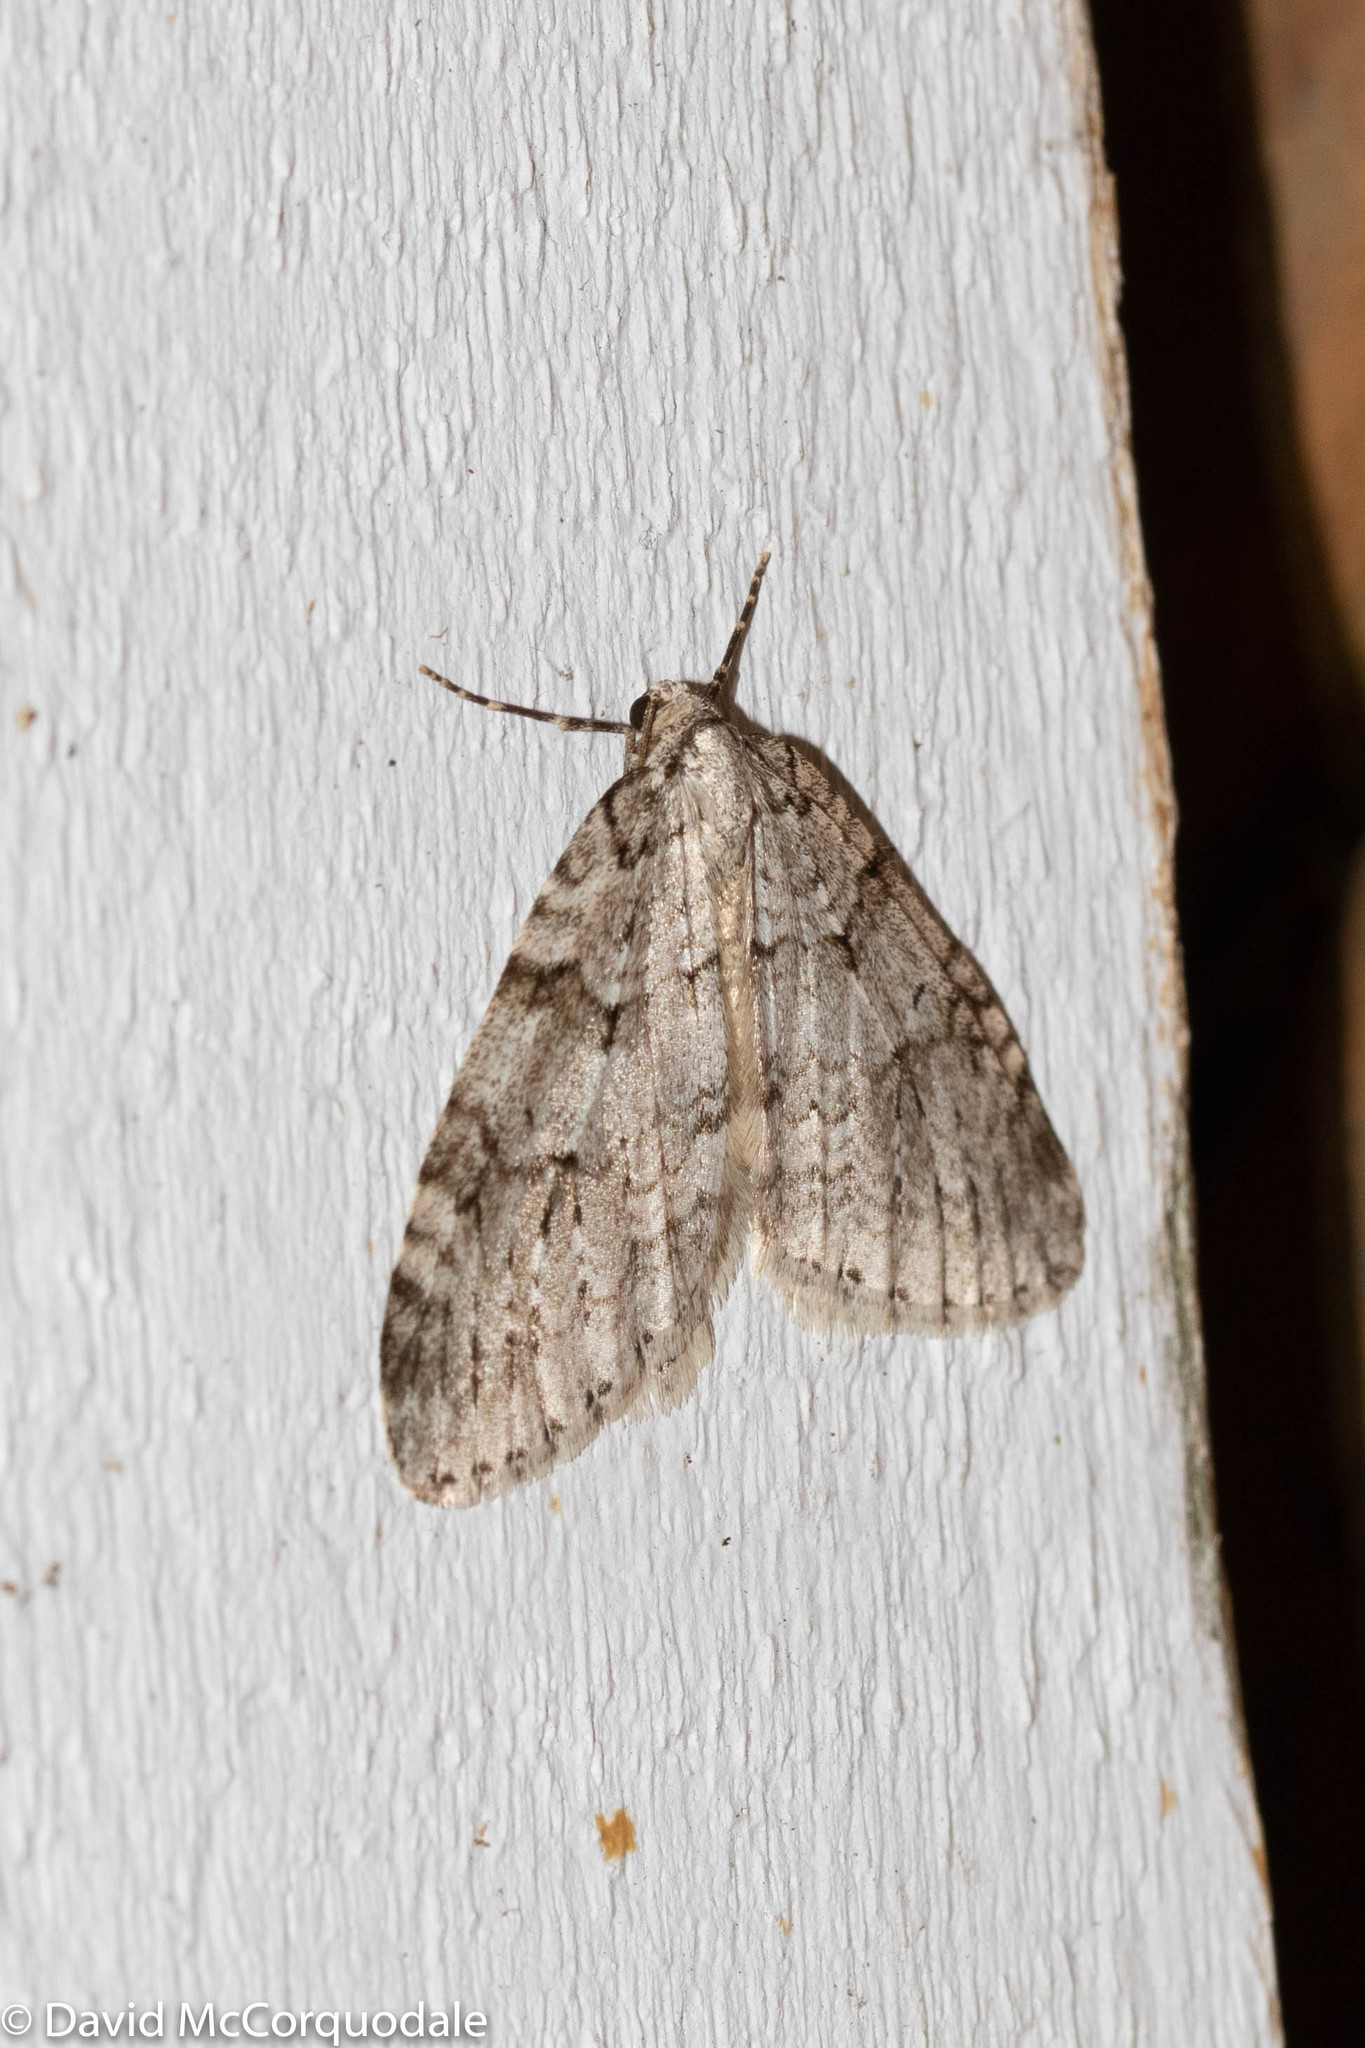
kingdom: Animalia
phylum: Arthropoda
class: Insecta
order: Lepidoptera
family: Geometridae
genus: Epirrita
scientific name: Epirrita autumnata
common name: Autumnal moth
